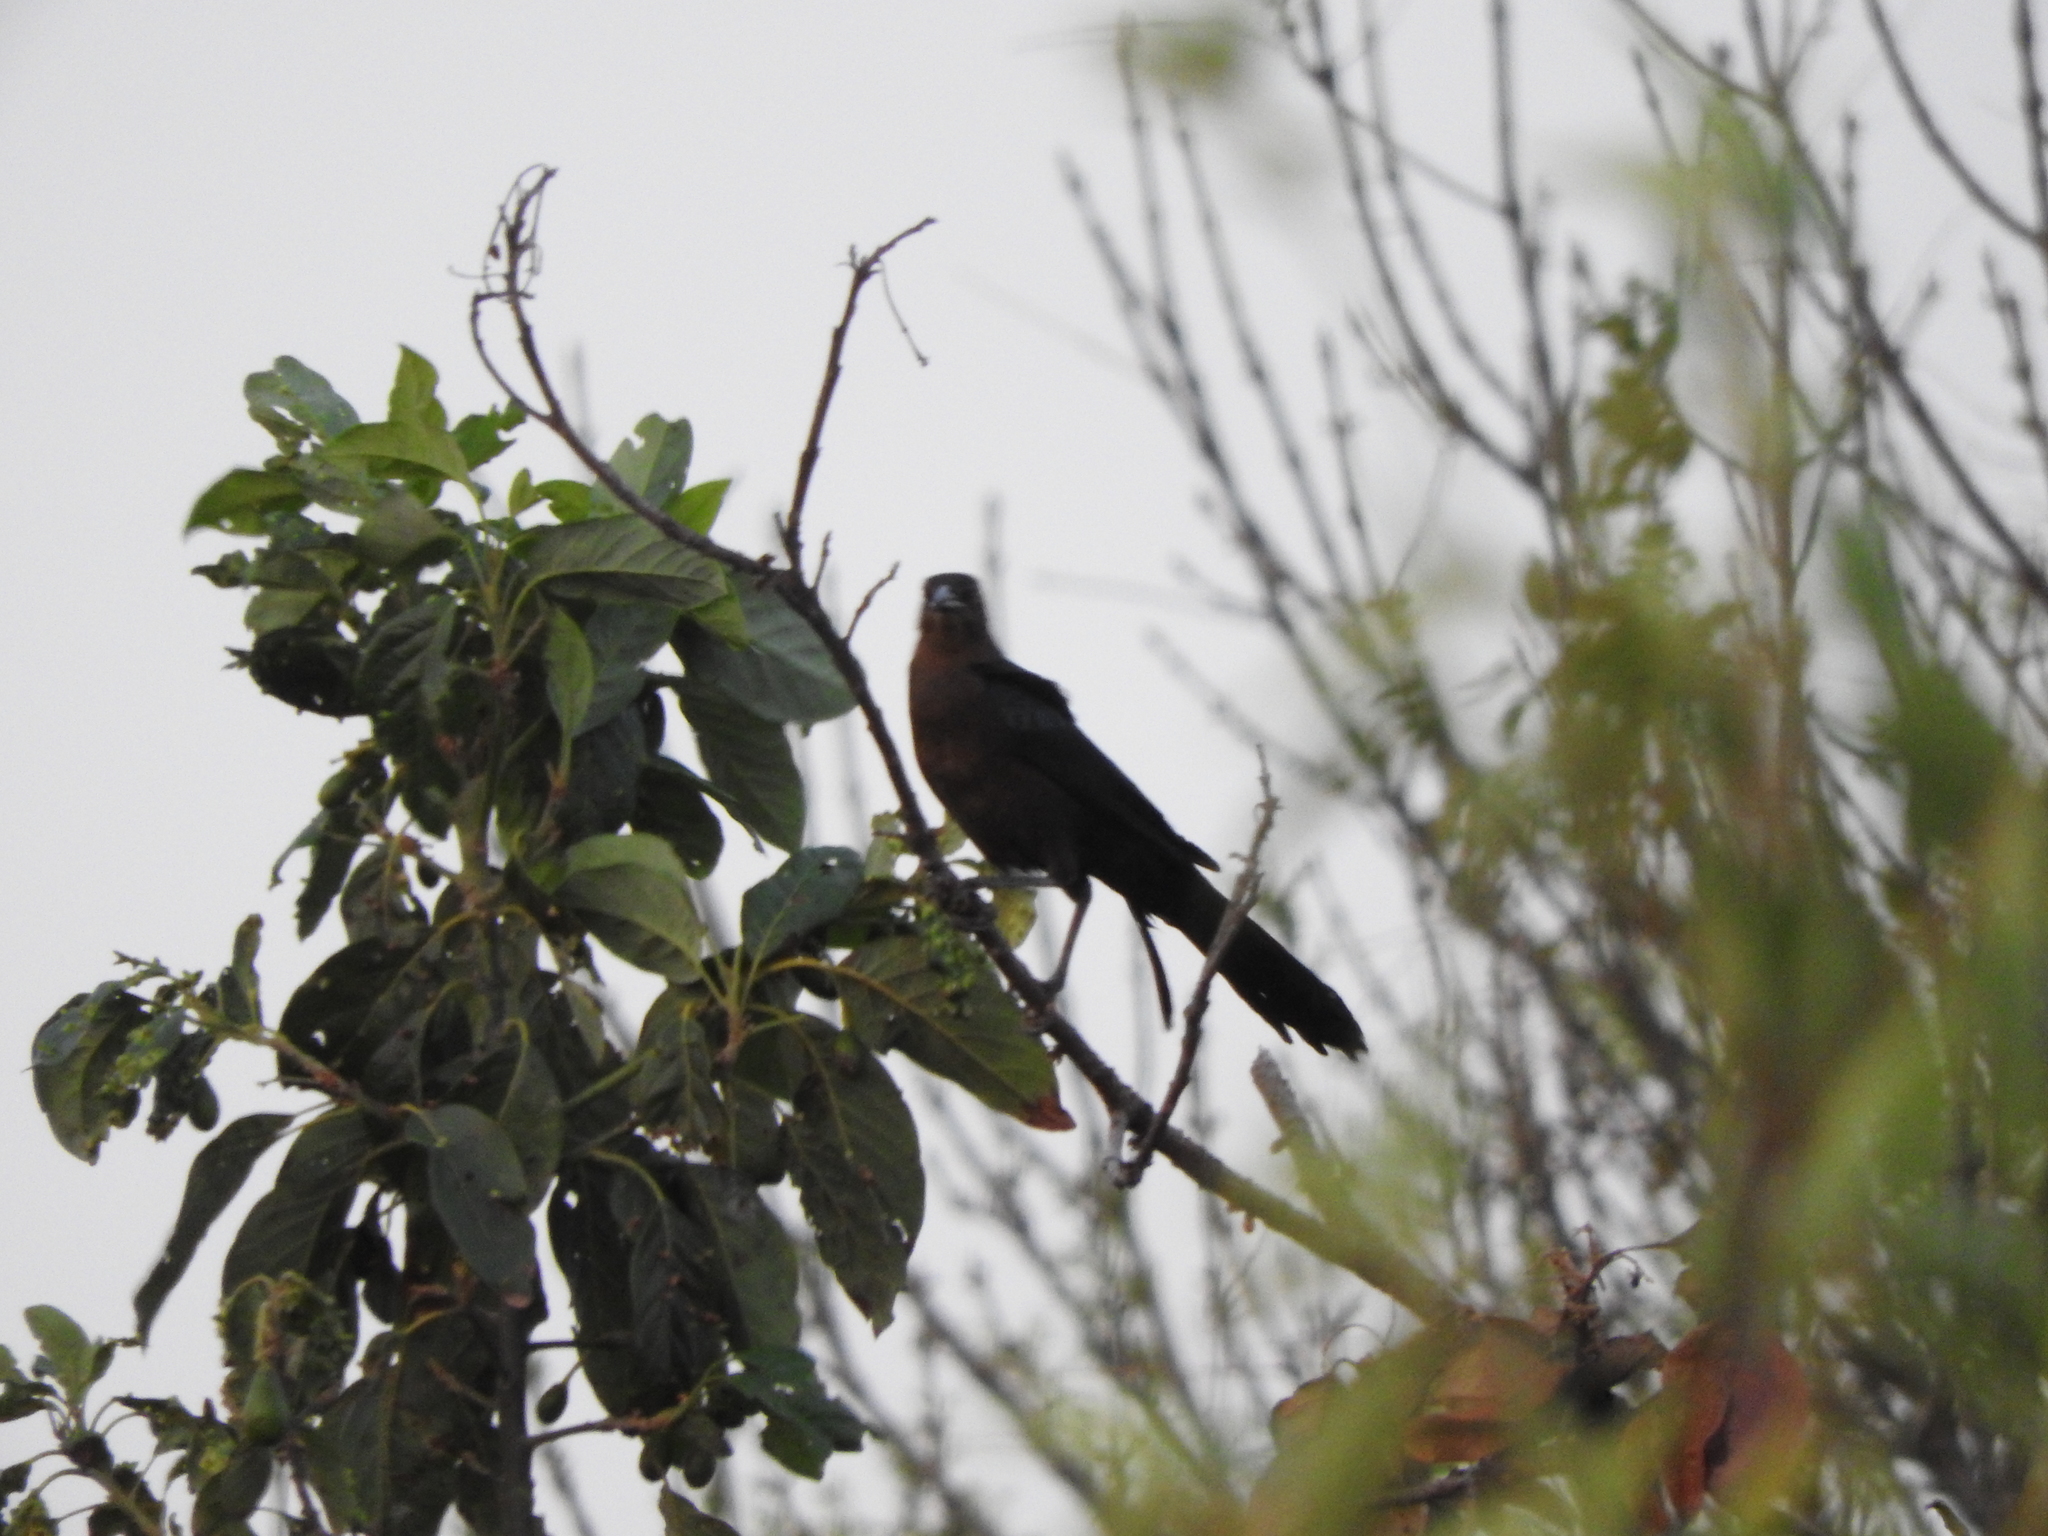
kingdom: Animalia
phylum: Chordata
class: Aves
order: Passeriformes
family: Icteridae
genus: Quiscalus
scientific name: Quiscalus mexicanus
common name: Great-tailed grackle
